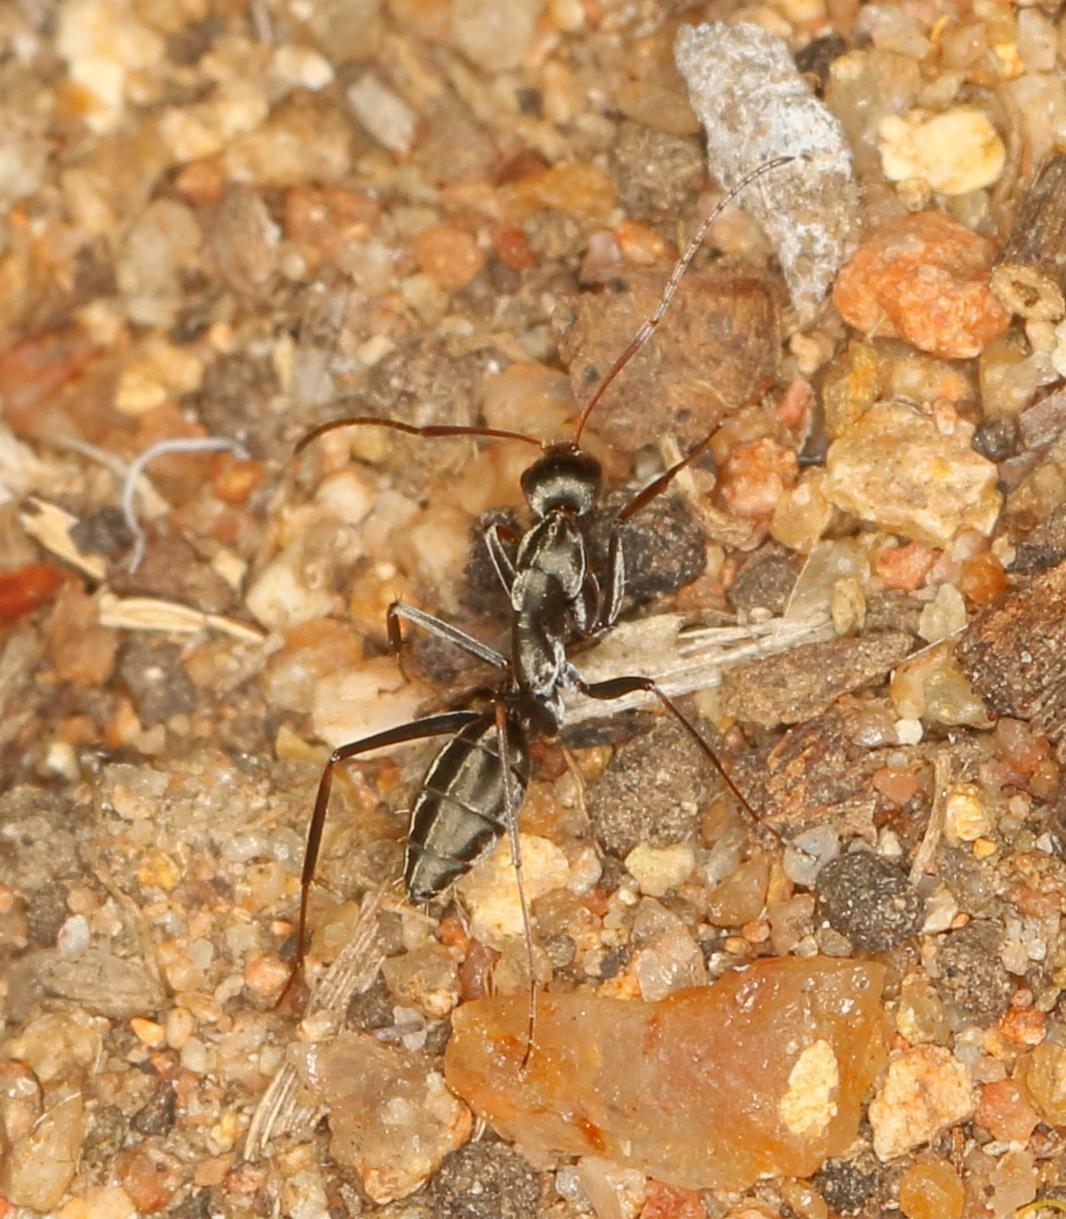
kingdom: Animalia
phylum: Arthropoda
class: Insecta
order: Hymenoptera
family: Formicidae
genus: Camponotus
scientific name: Camponotus vestitus
